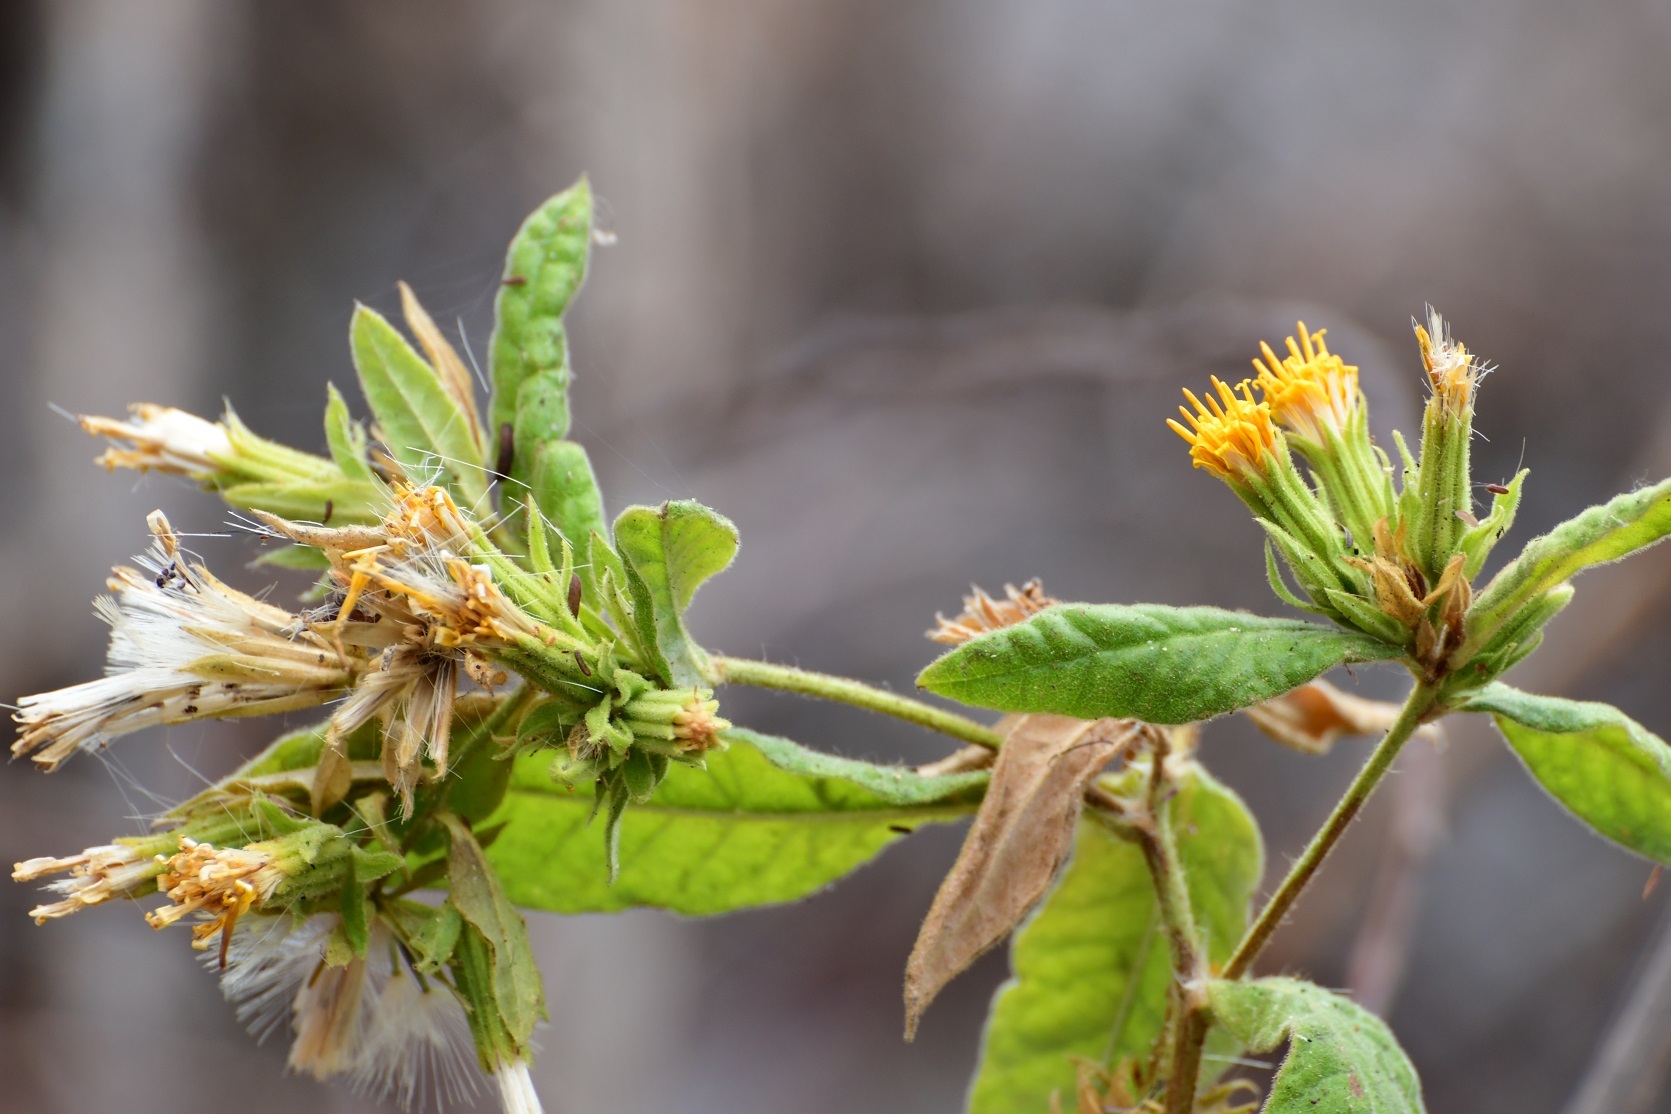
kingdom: Plantae
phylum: Tracheophyta
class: Magnoliopsida
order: Asterales
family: Asteraceae
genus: Trixis
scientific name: Trixis chiapensis
